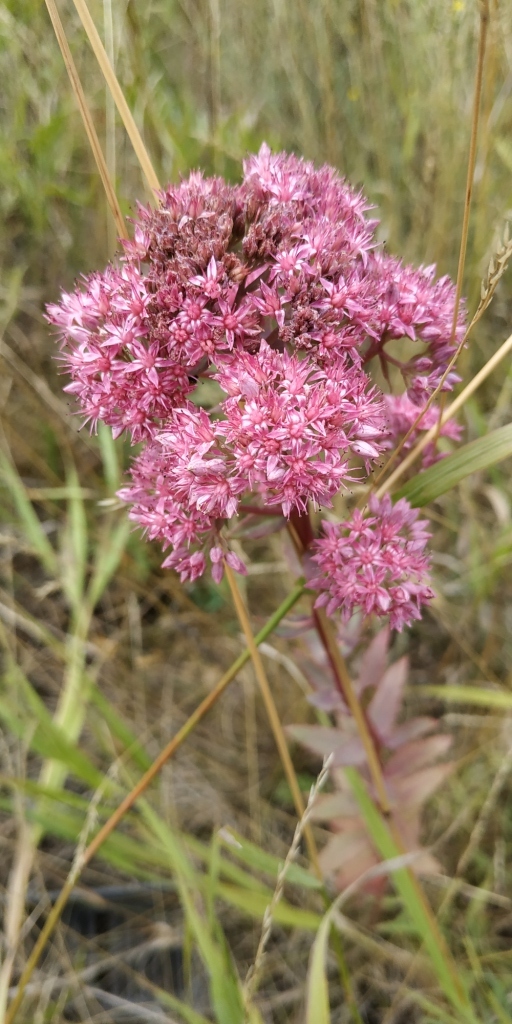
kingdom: Plantae
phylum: Tracheophyta
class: Magnoliopsida
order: Saxifragales
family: Crassulaceae
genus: Hylotelephium
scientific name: Hylotelephium telephium
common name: Live-forever
